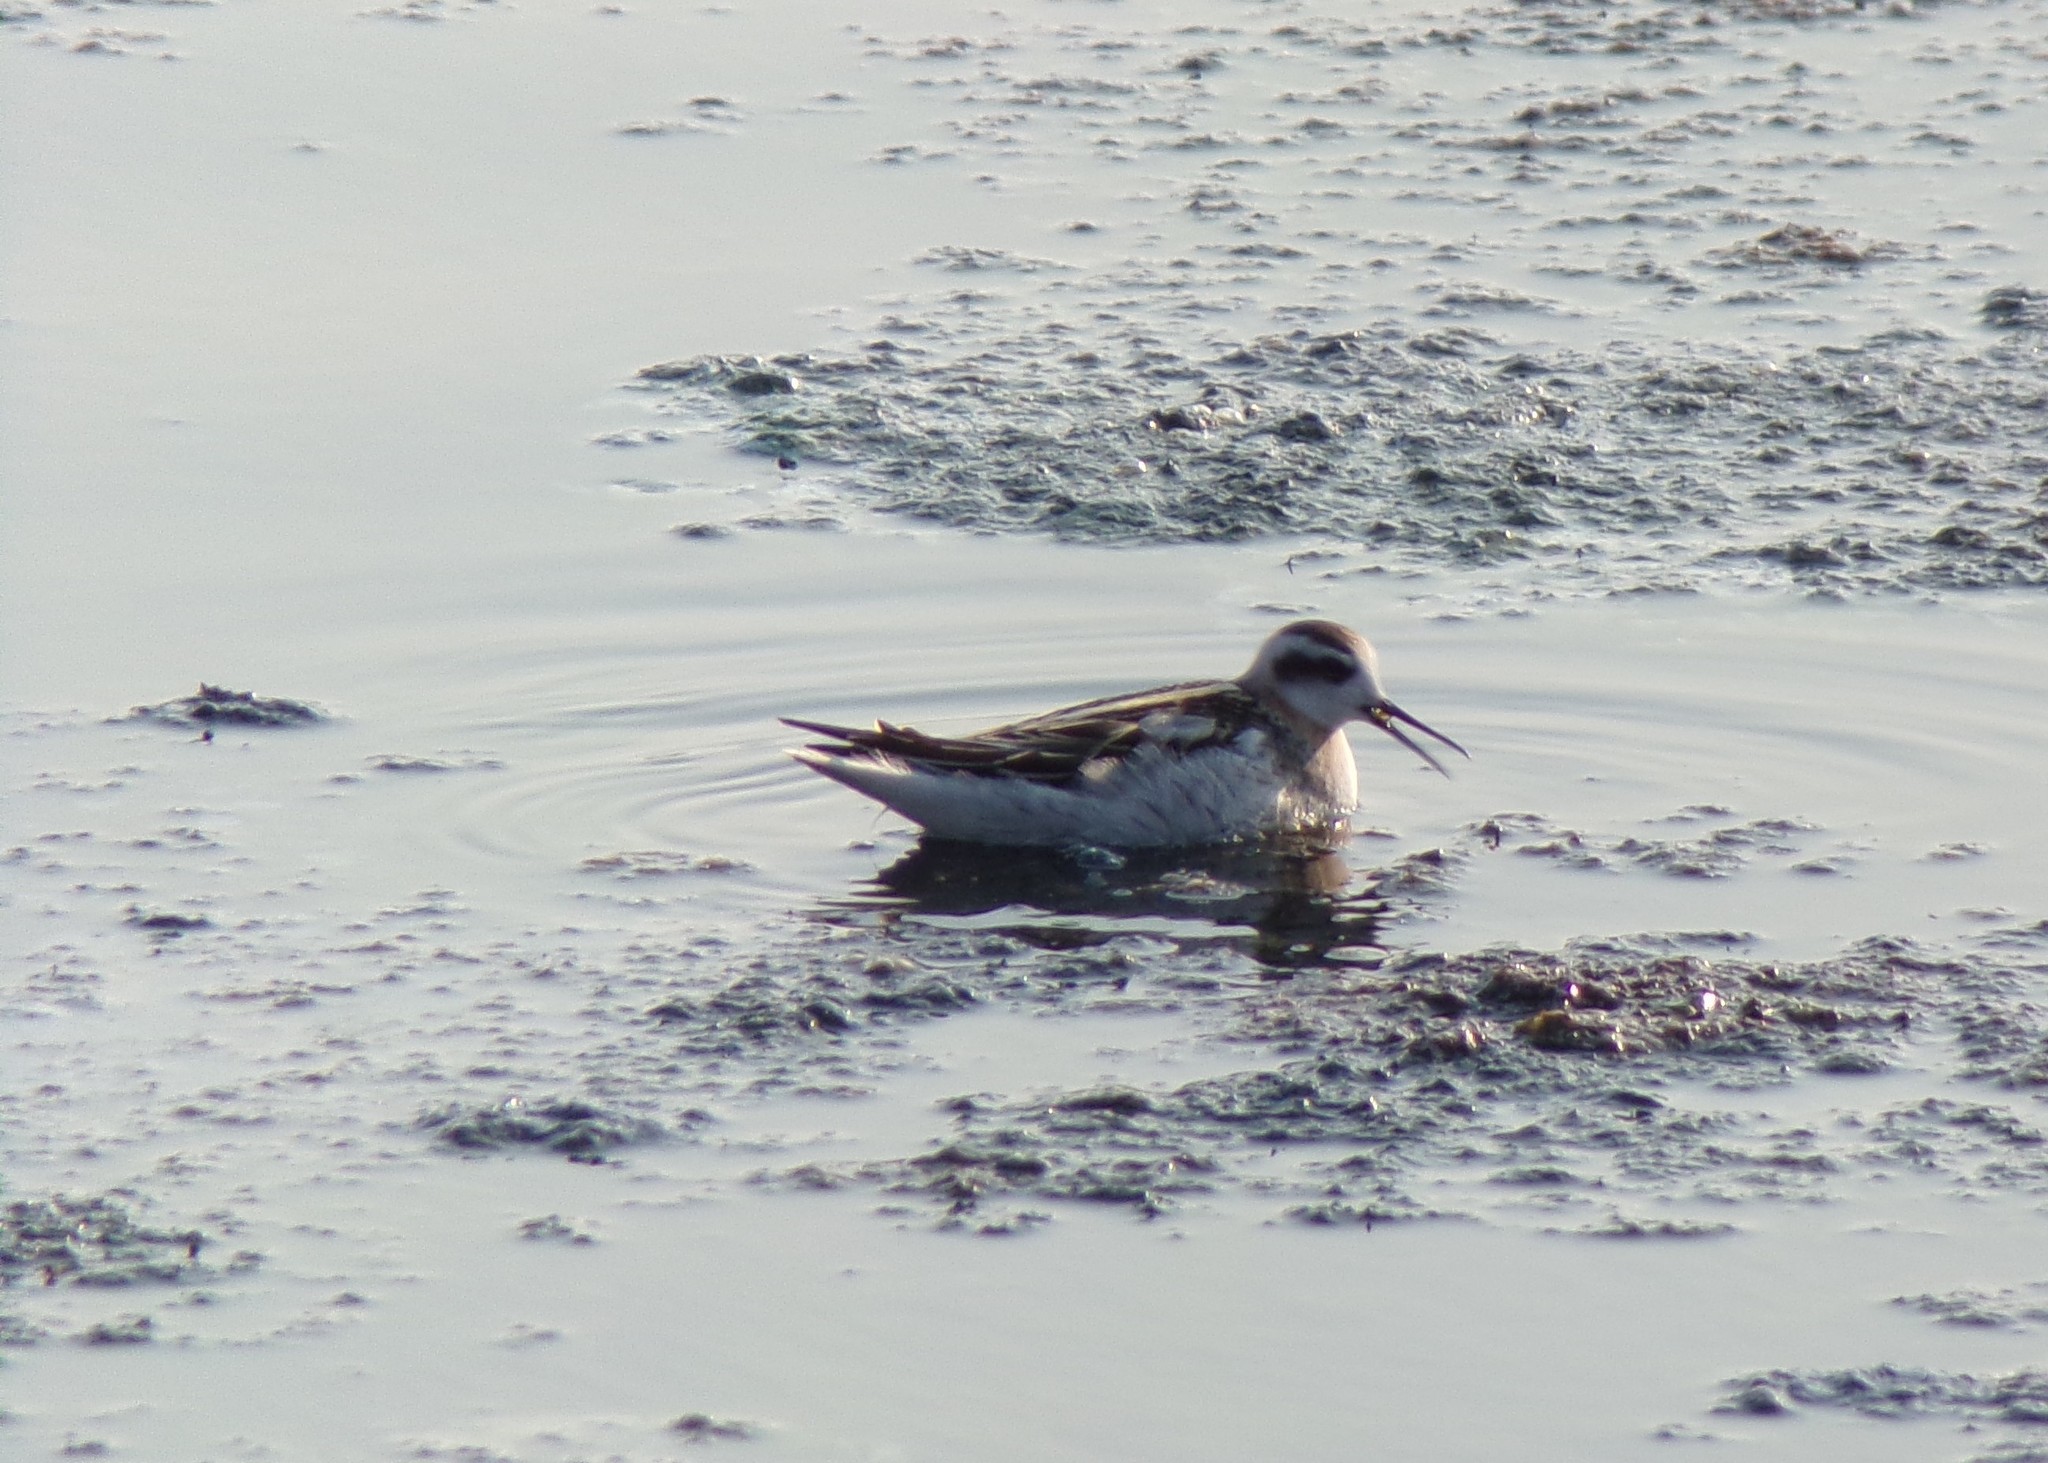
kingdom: Animalia
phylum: Chordata
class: Aves
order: Charadriiformes
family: Scolopacidae
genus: Phalaropus
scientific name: Phalaropus lobatus
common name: Red-necked phalarope
